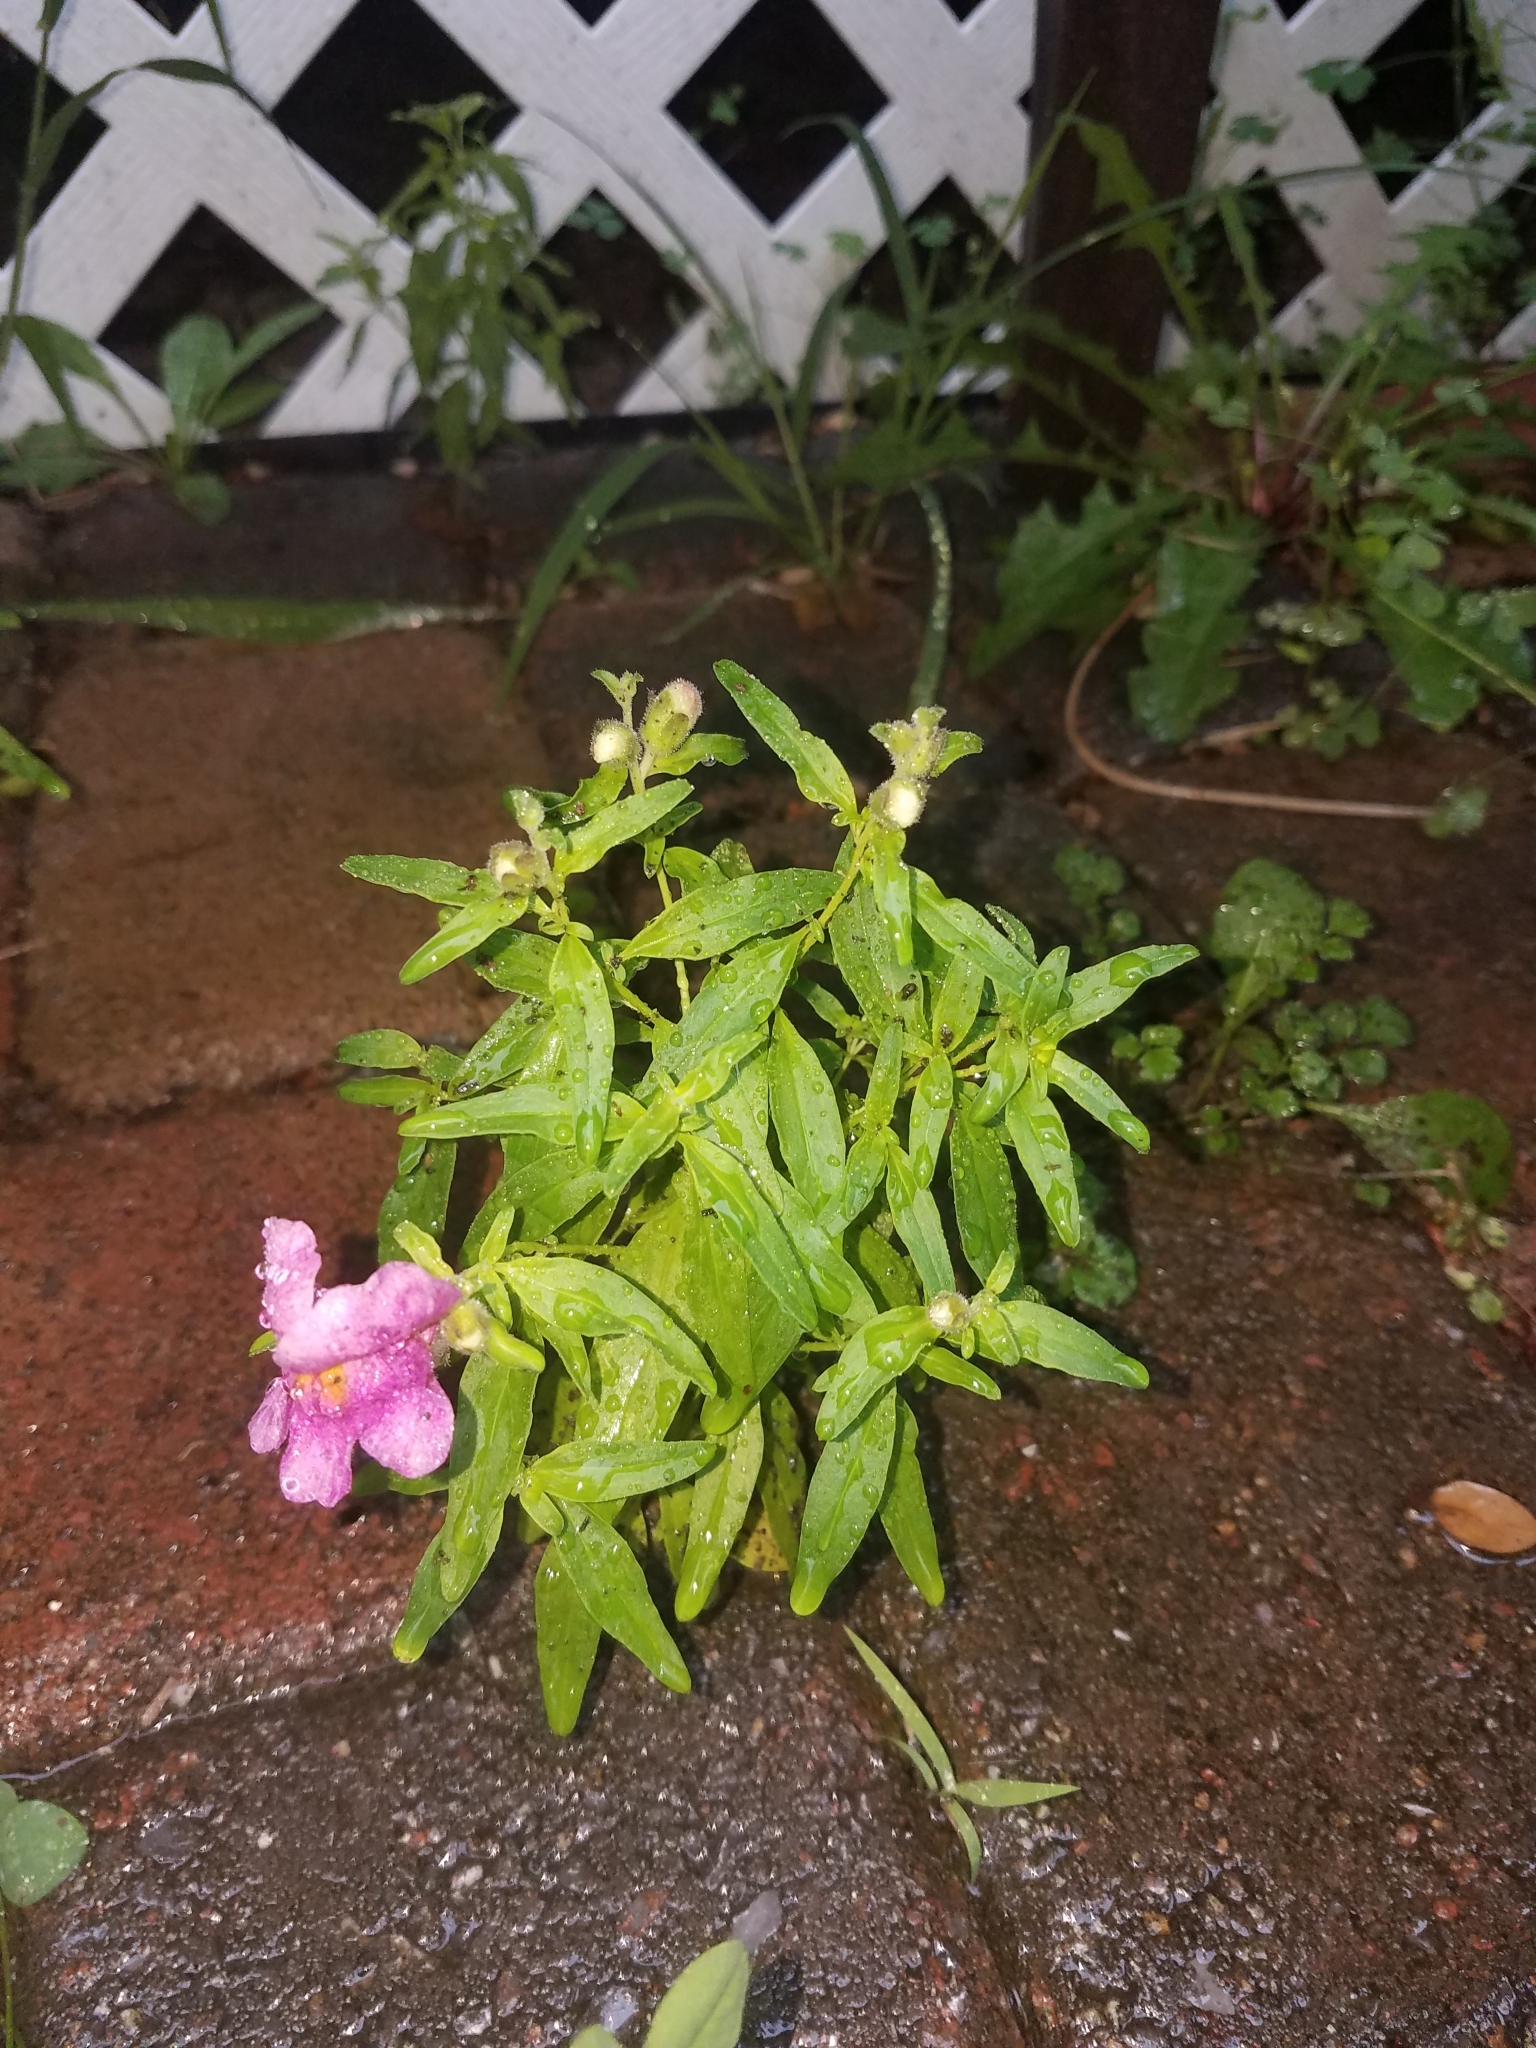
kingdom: Plantae
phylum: Tracheophyta
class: Magnoliopsida
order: Lamiales
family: Plantaginaceae
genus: Antirrhinum
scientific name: Antirrhinum majus
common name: Snapdragon
